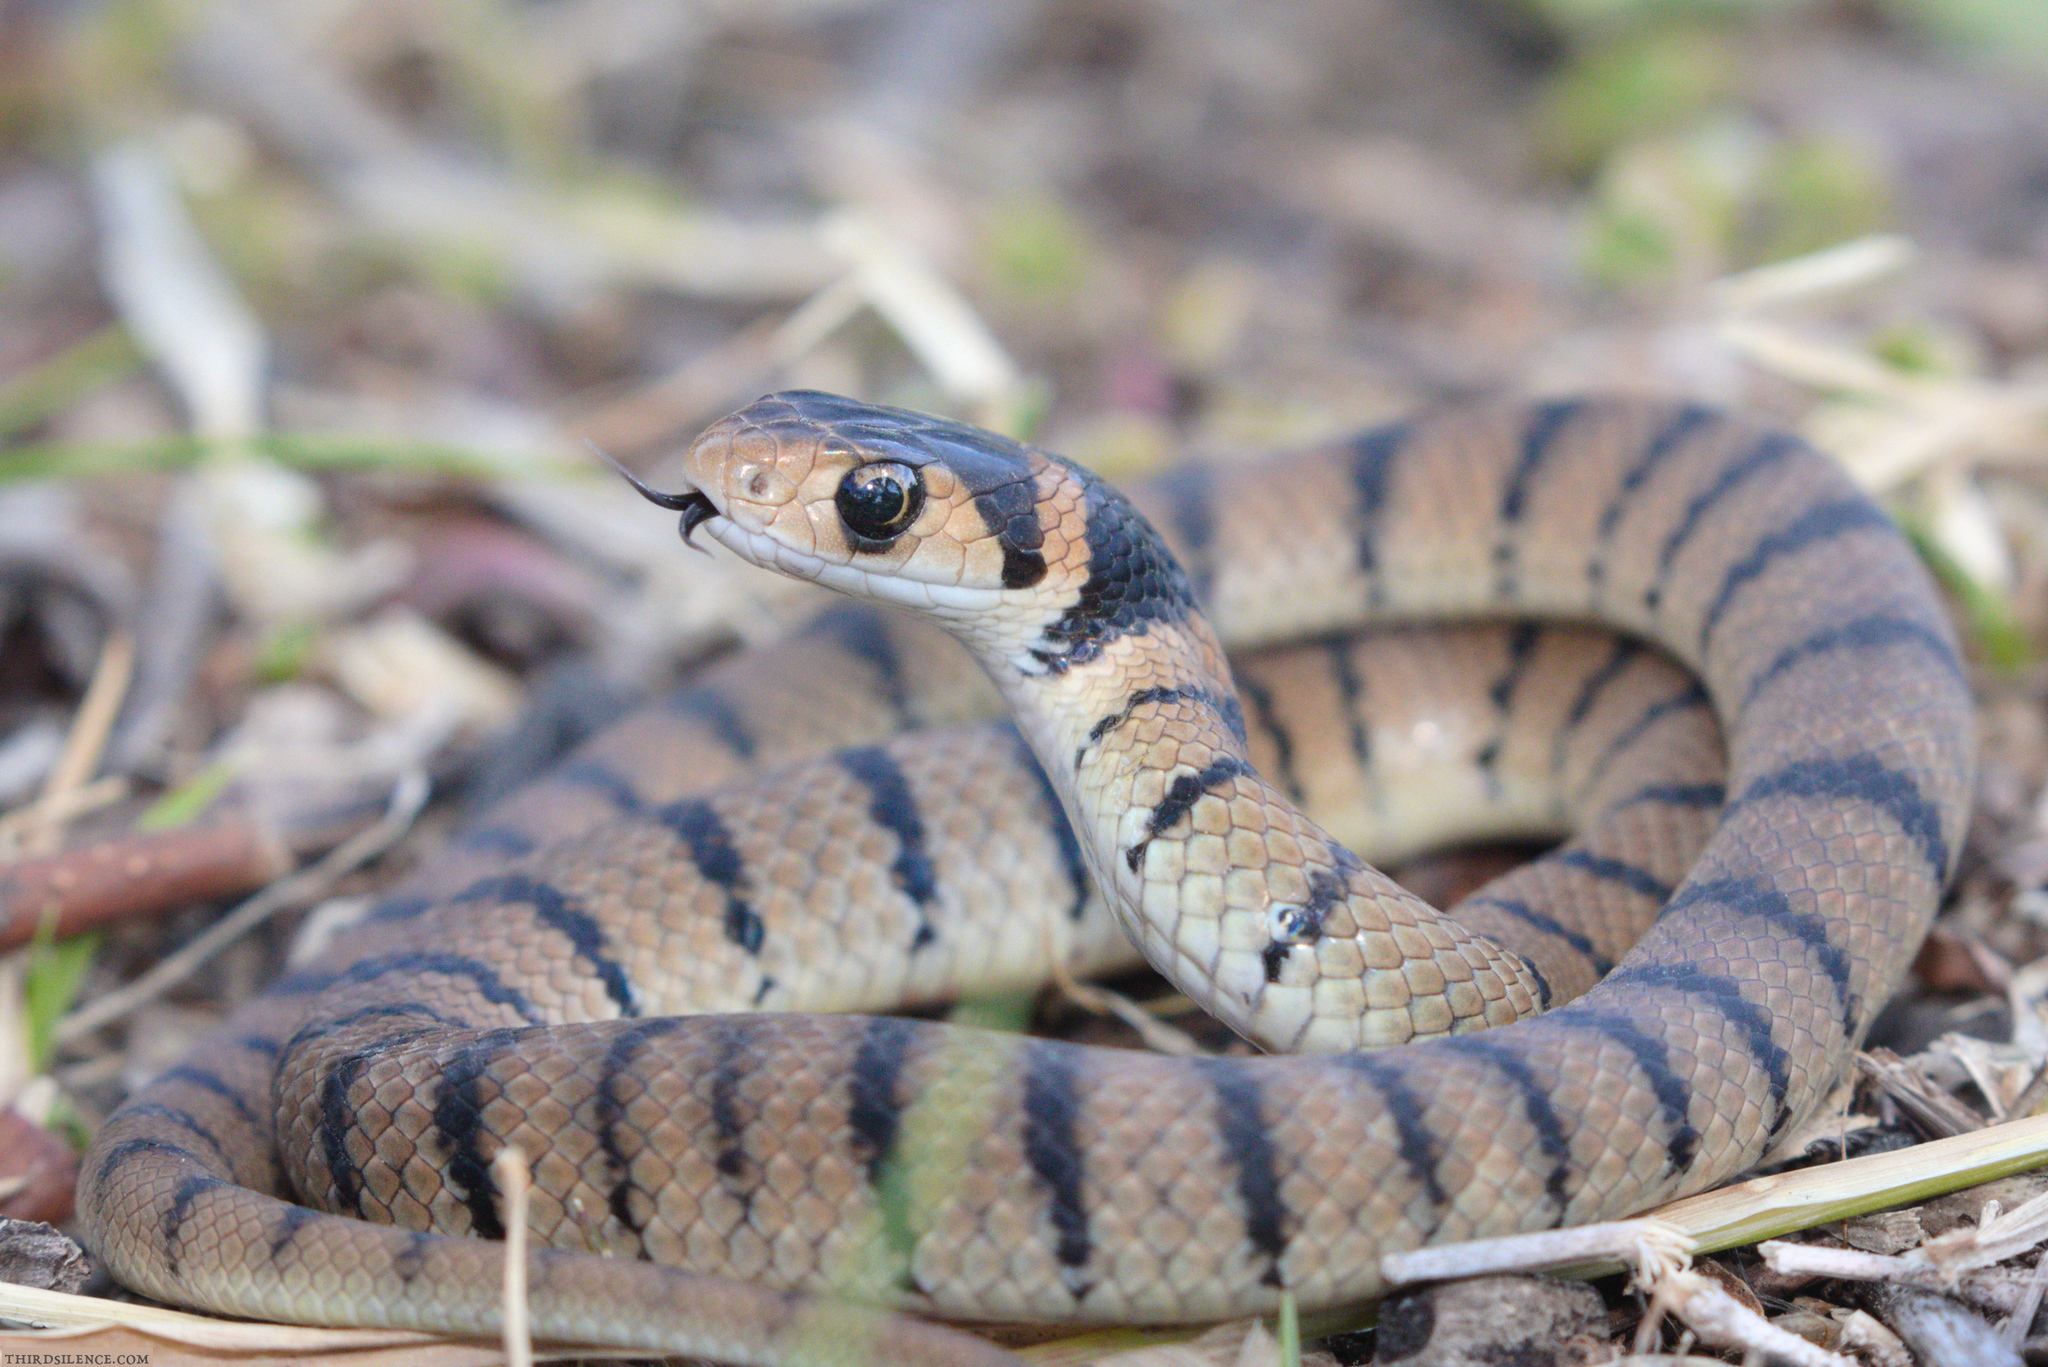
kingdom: Animalia
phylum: Chordata
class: Squamata
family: Elapidae
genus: Pseudonaja
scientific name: Pseudonaja textilis
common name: Eastern brown snake
